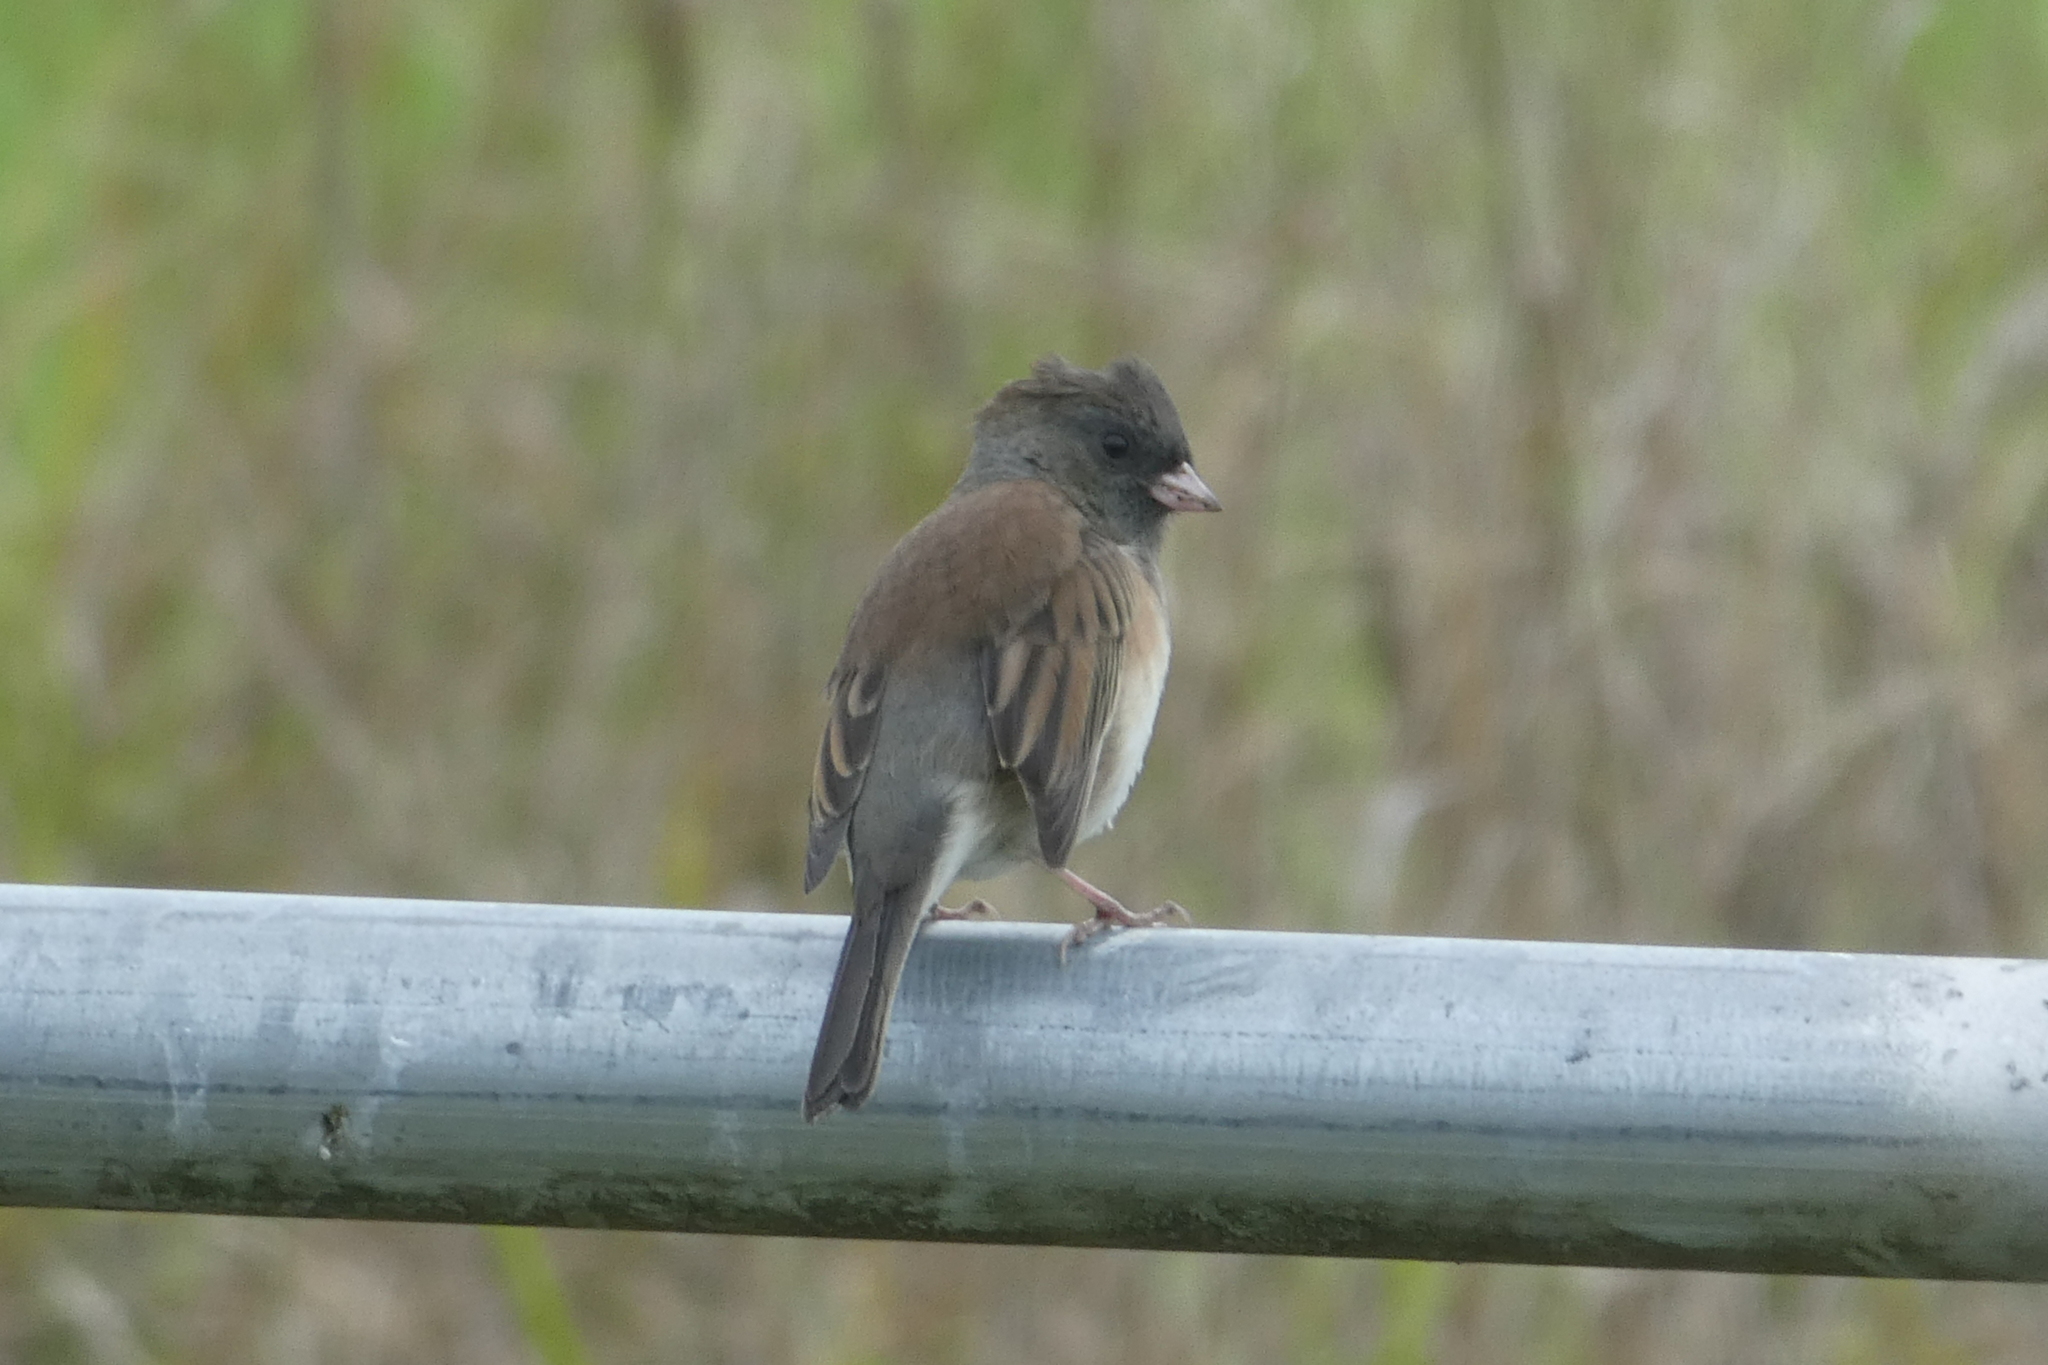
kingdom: Animalia
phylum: Chordata
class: Aves
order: Passeriformes
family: Passerellidae
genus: Junco
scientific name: Junco hyemalis
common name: Dark-eyed junco
